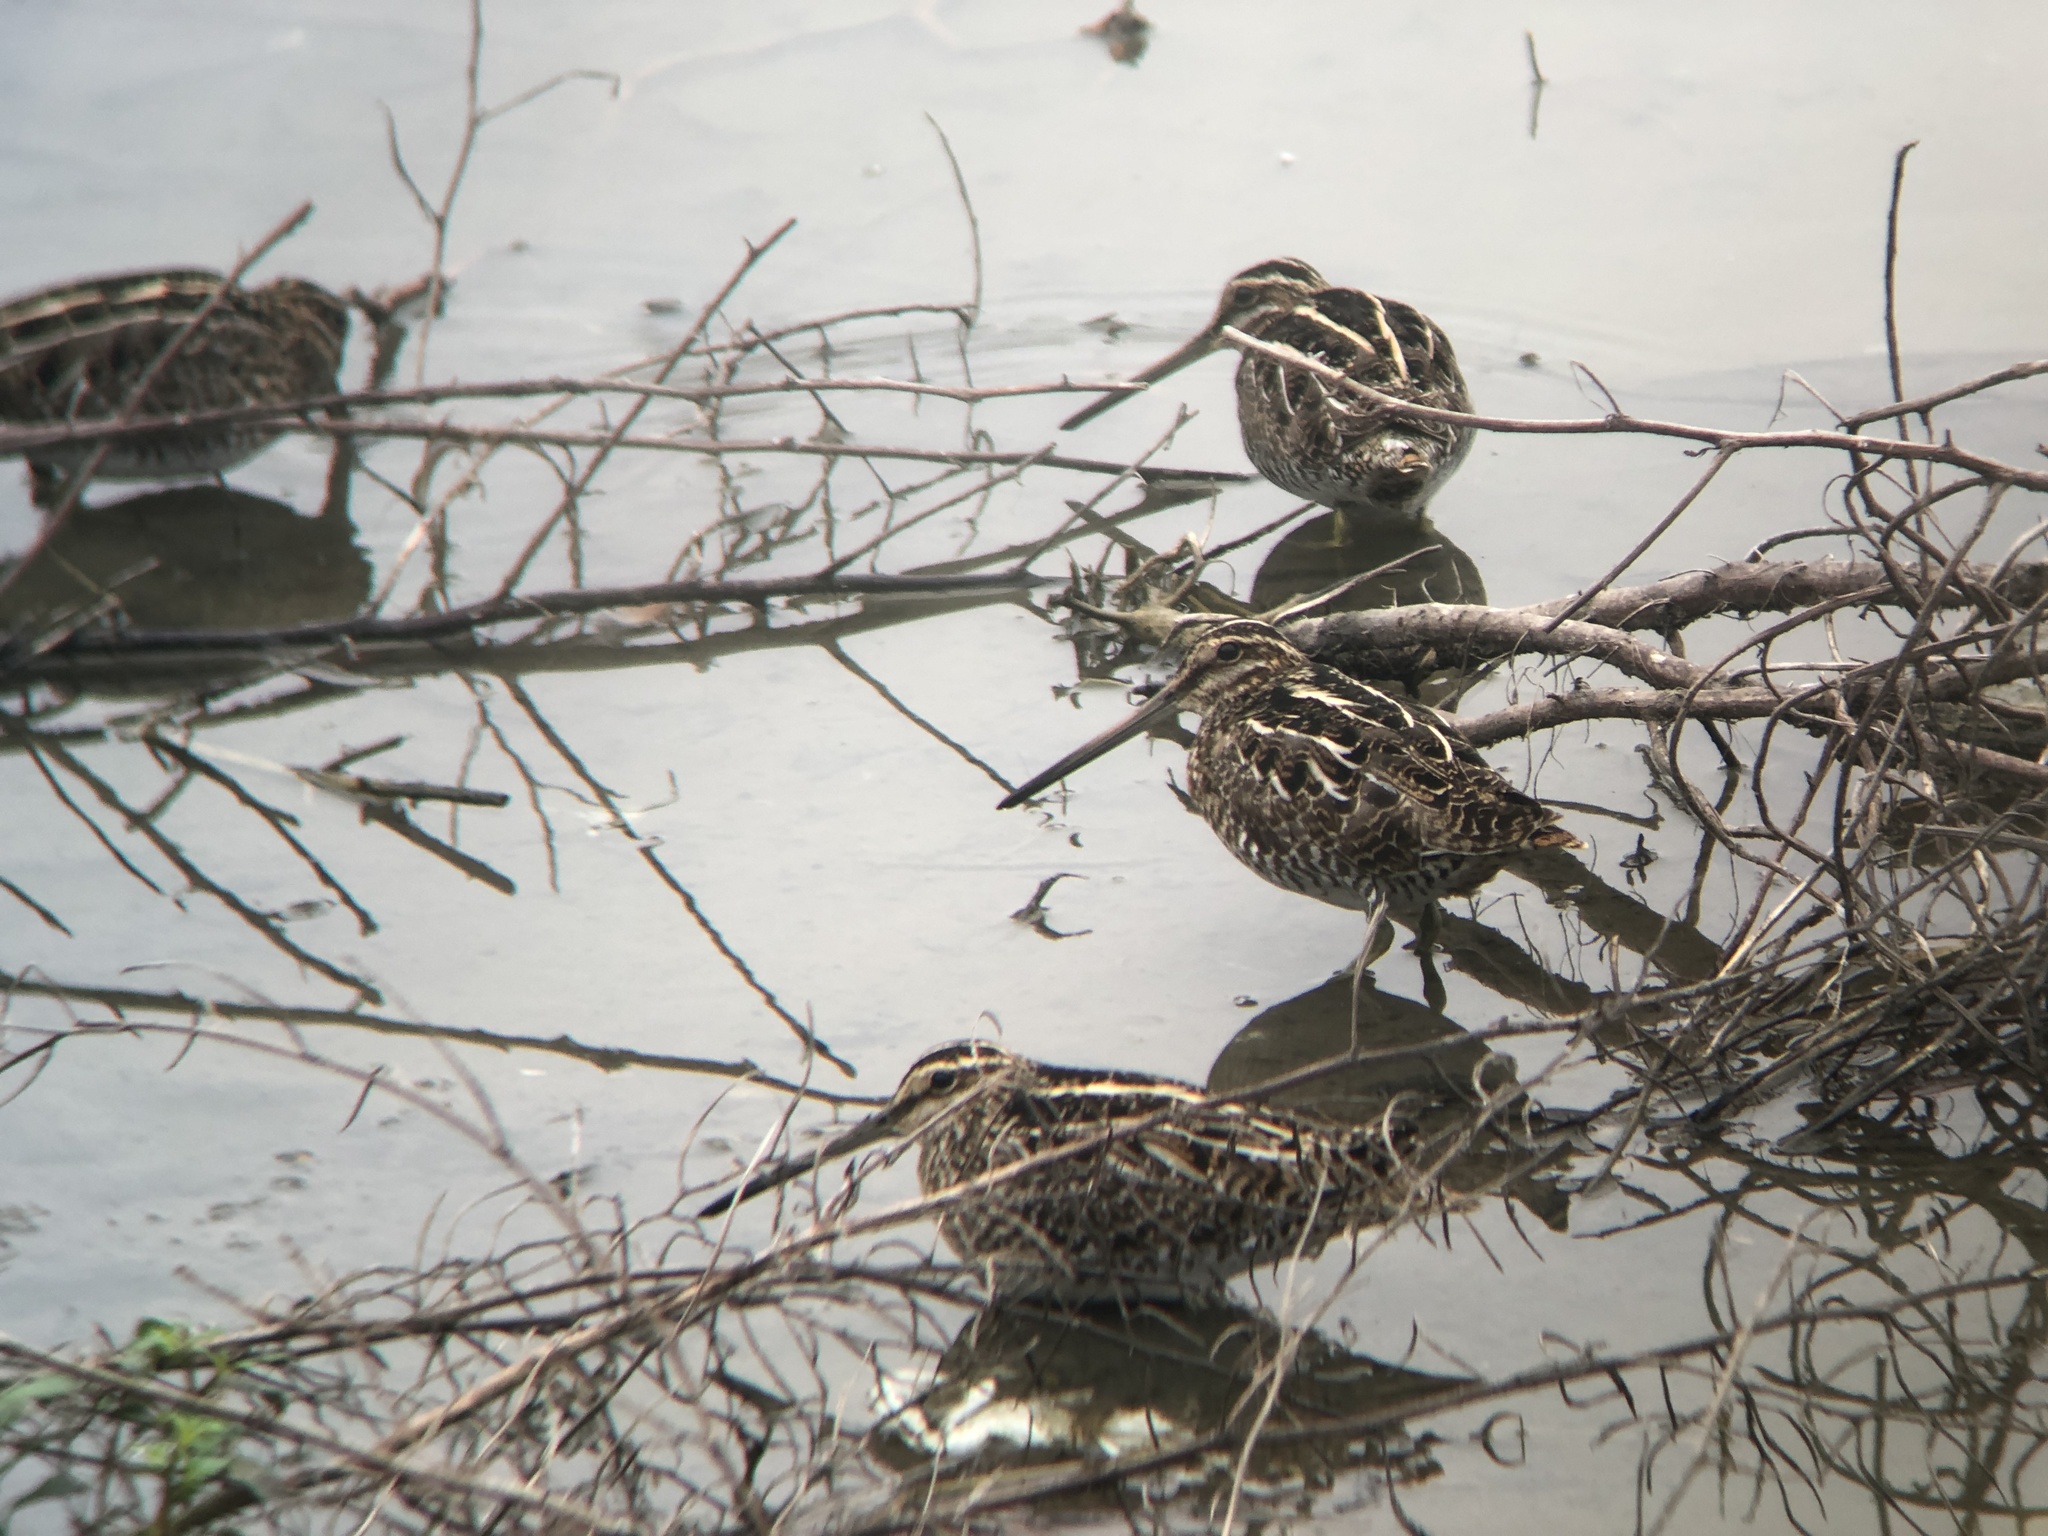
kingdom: Animalia
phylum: Chordata
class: Aves
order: Charadriiformes
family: Scolopacidae
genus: Gallinago
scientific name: Gallinago delicata
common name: Wilson's snipe
